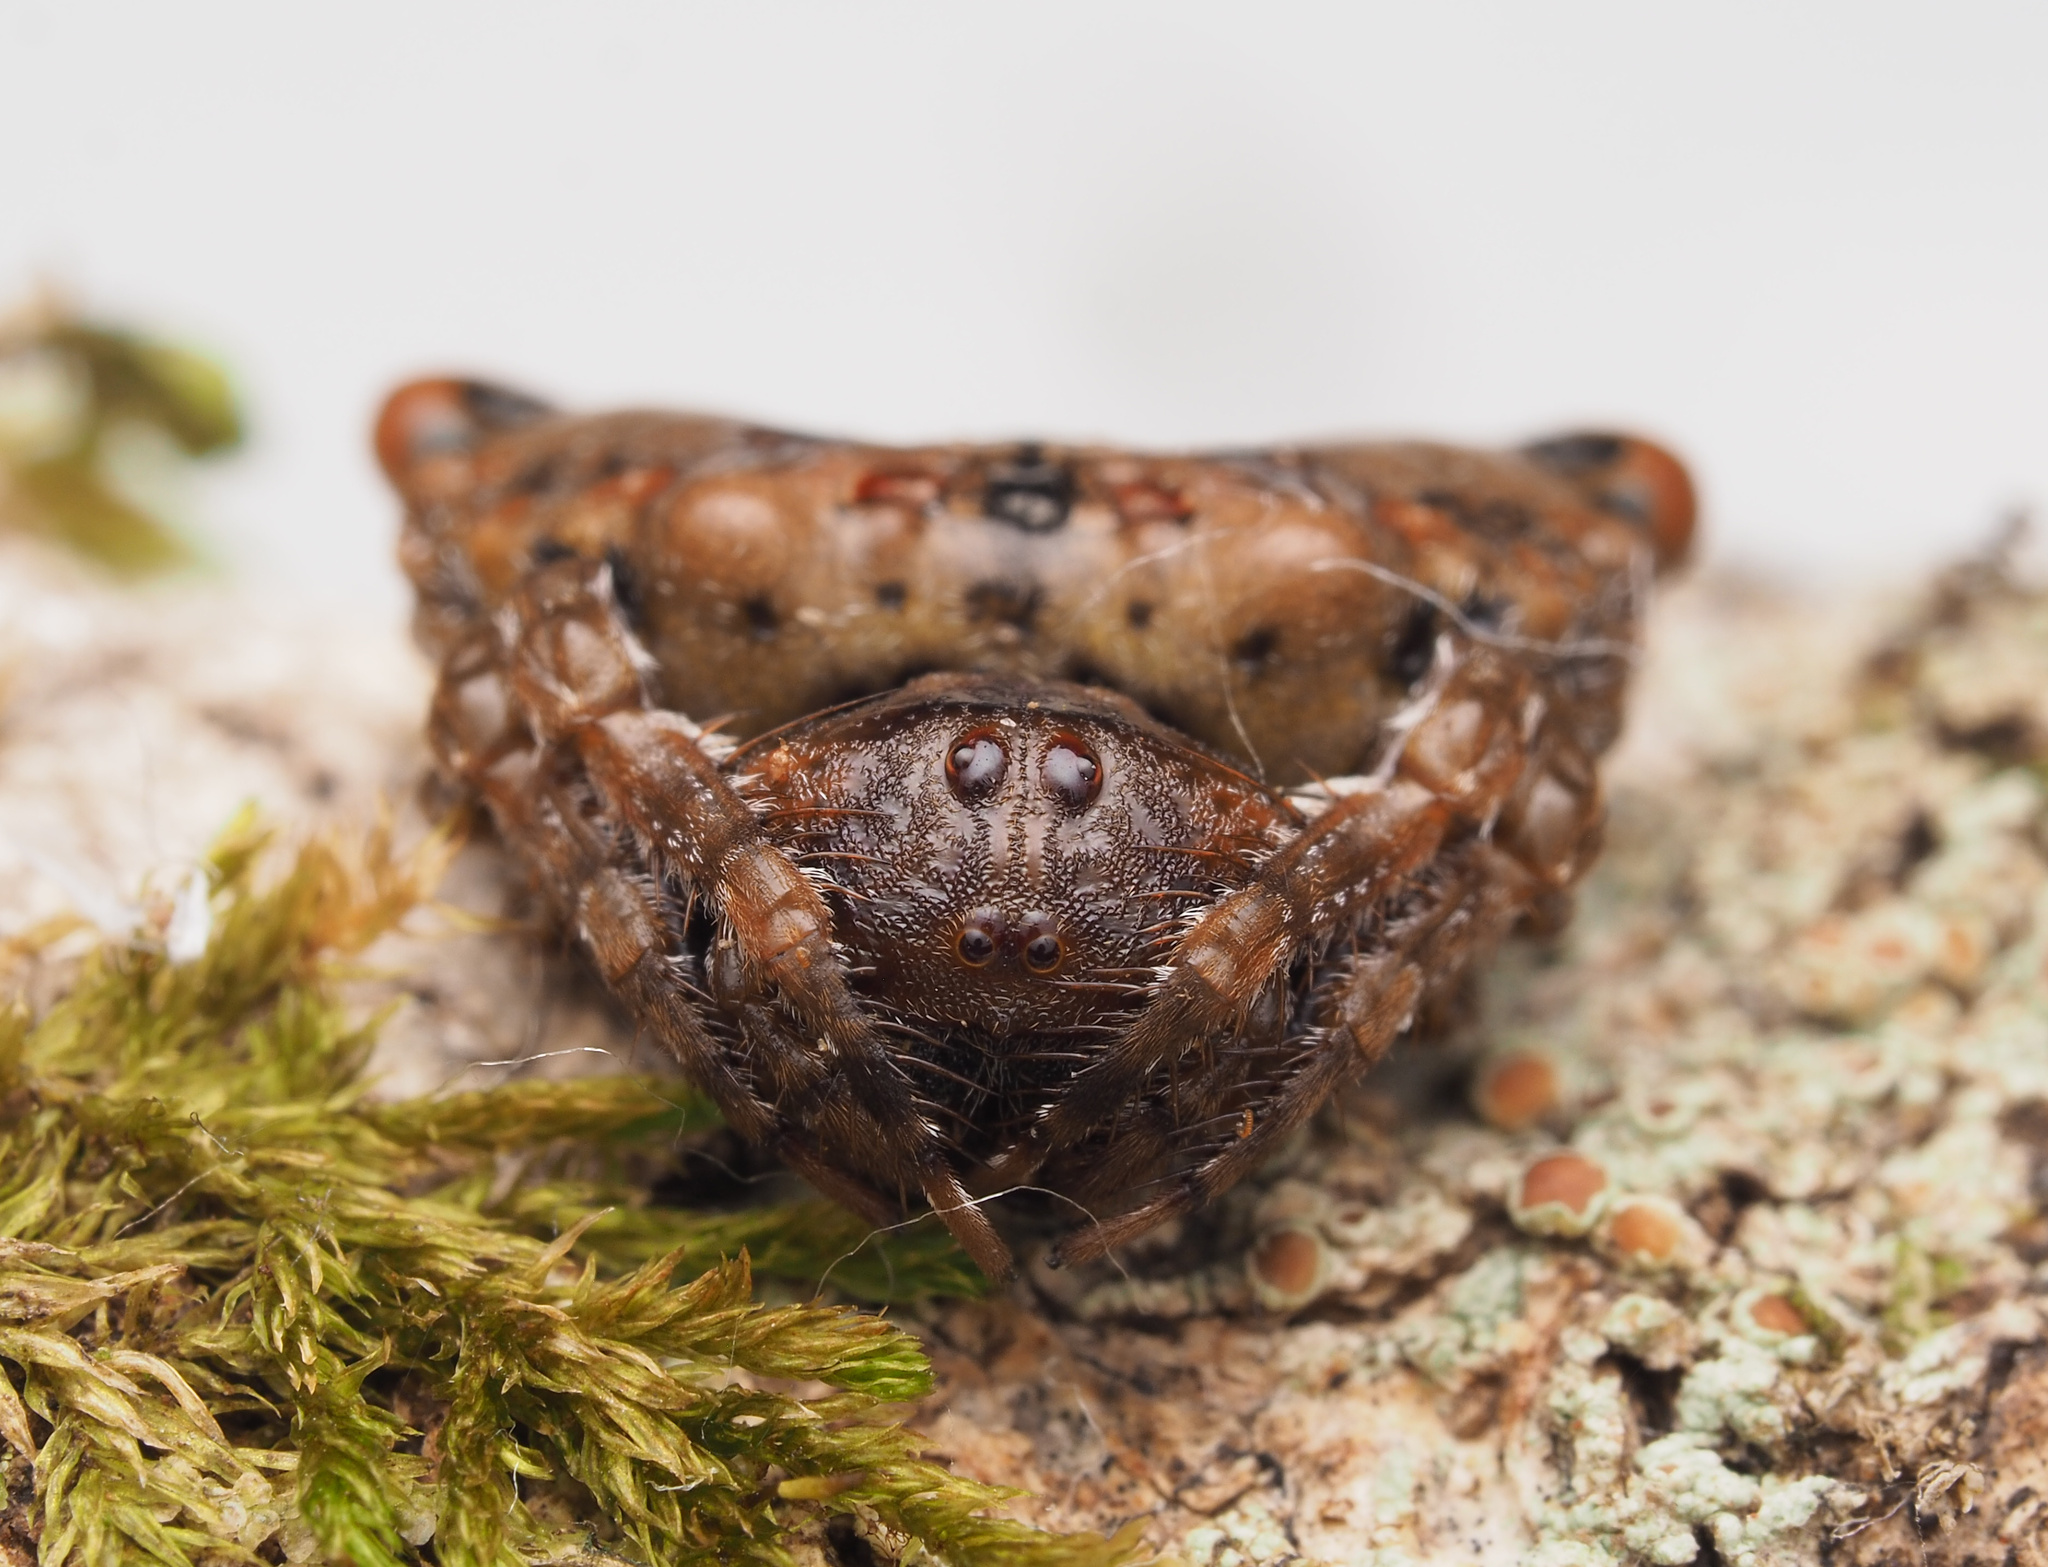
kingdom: Animalia
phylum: Arthropoda
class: Arachnida
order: Araneae
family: Arkyidae
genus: Arkys
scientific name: Arkys curtulus
